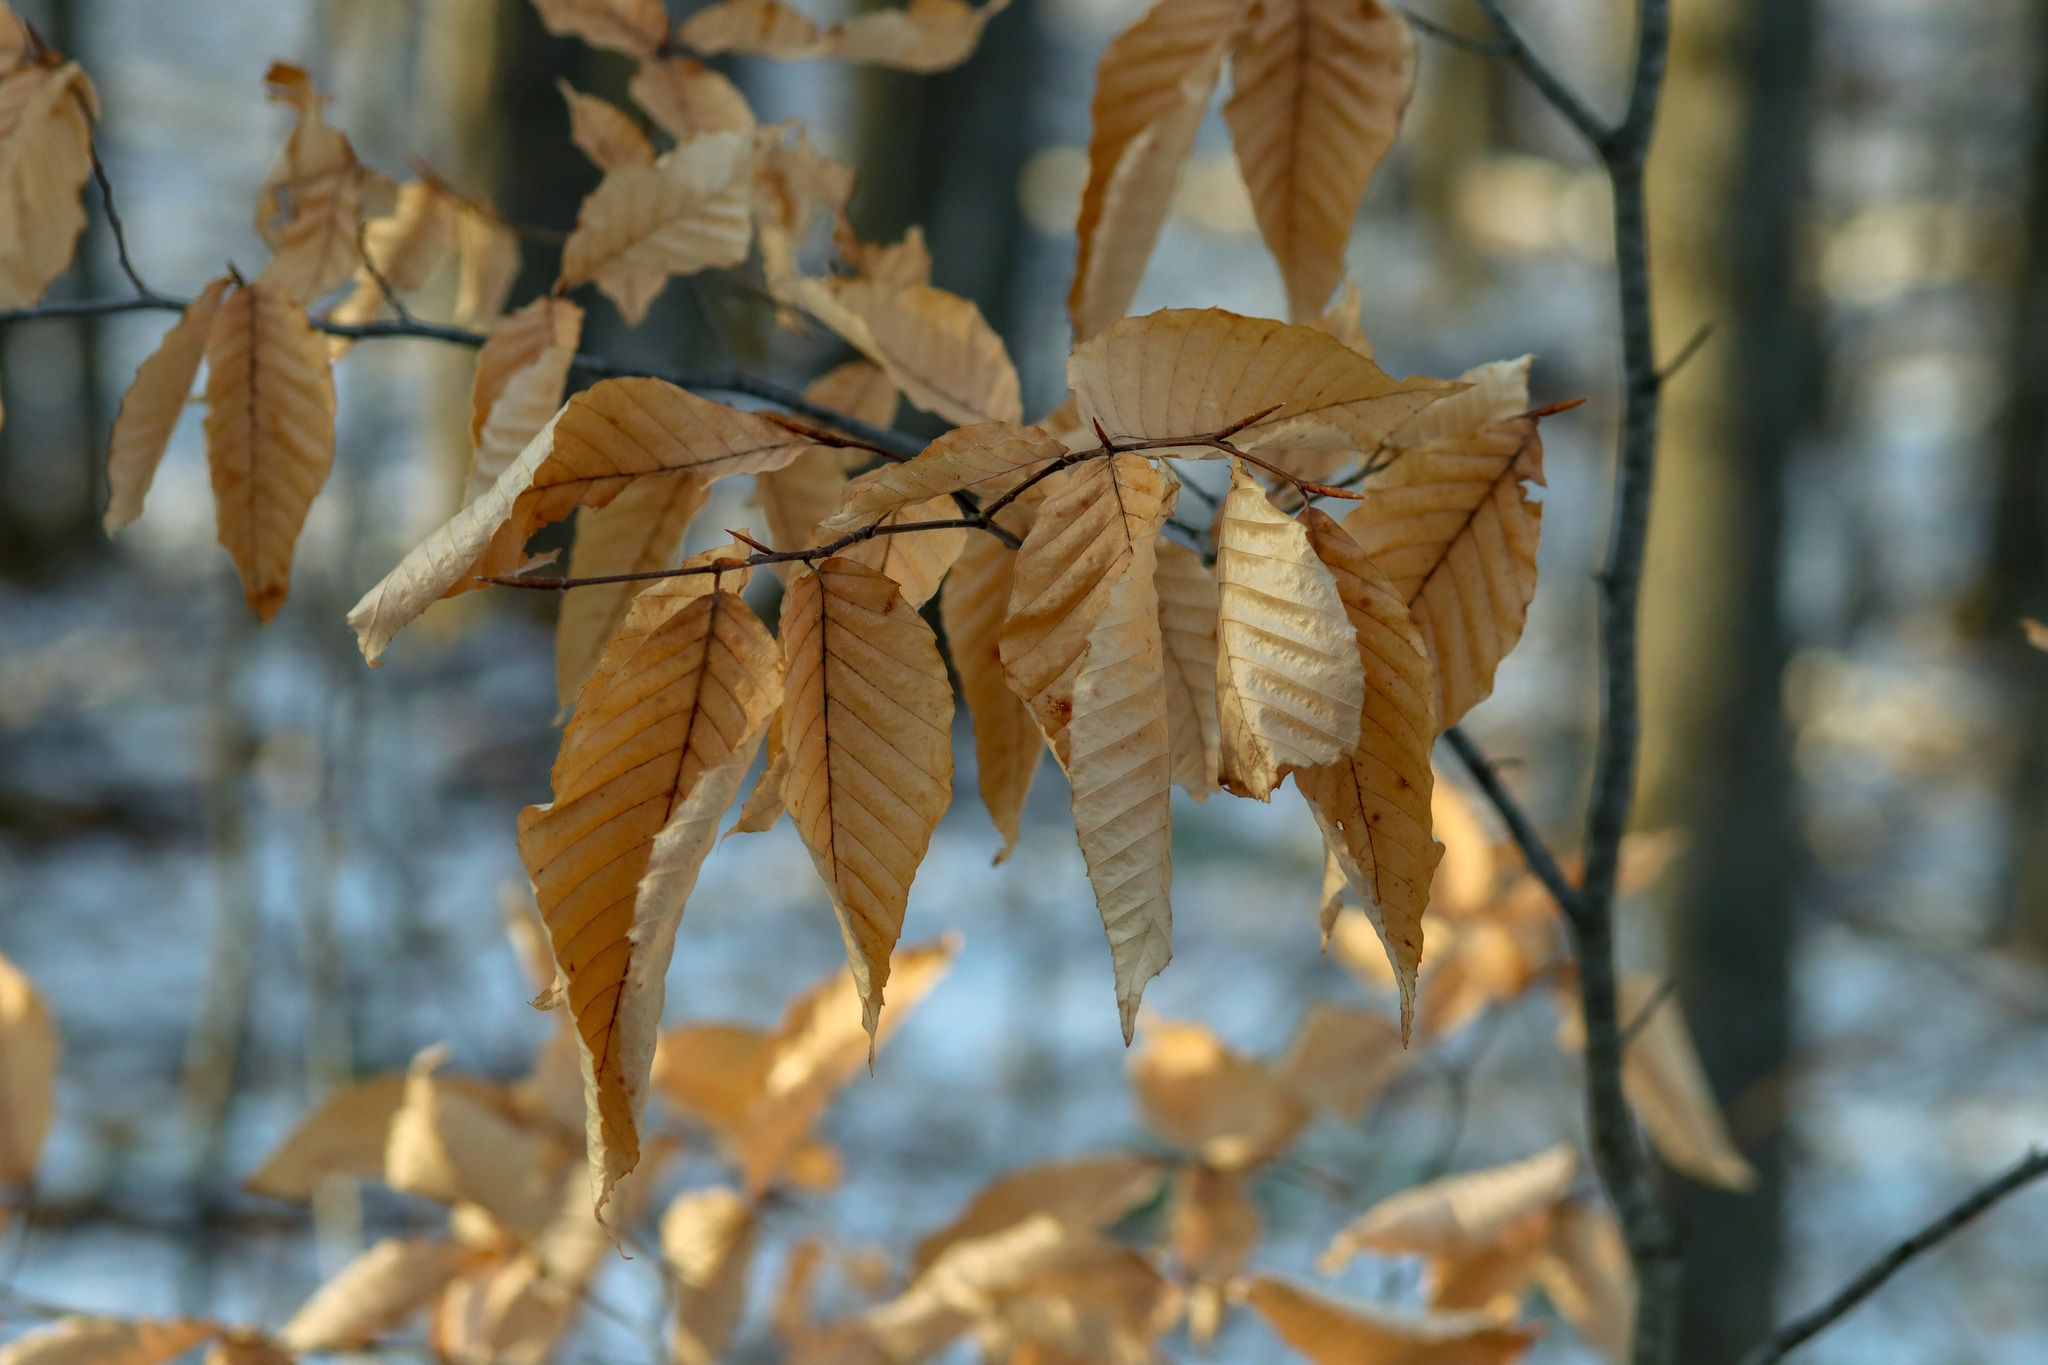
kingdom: Plantae
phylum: Tracheophyta
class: Magnoliopsida
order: Fagales
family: Fagaceae
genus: Fagus
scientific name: Fagus grandifolia
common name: American beech
